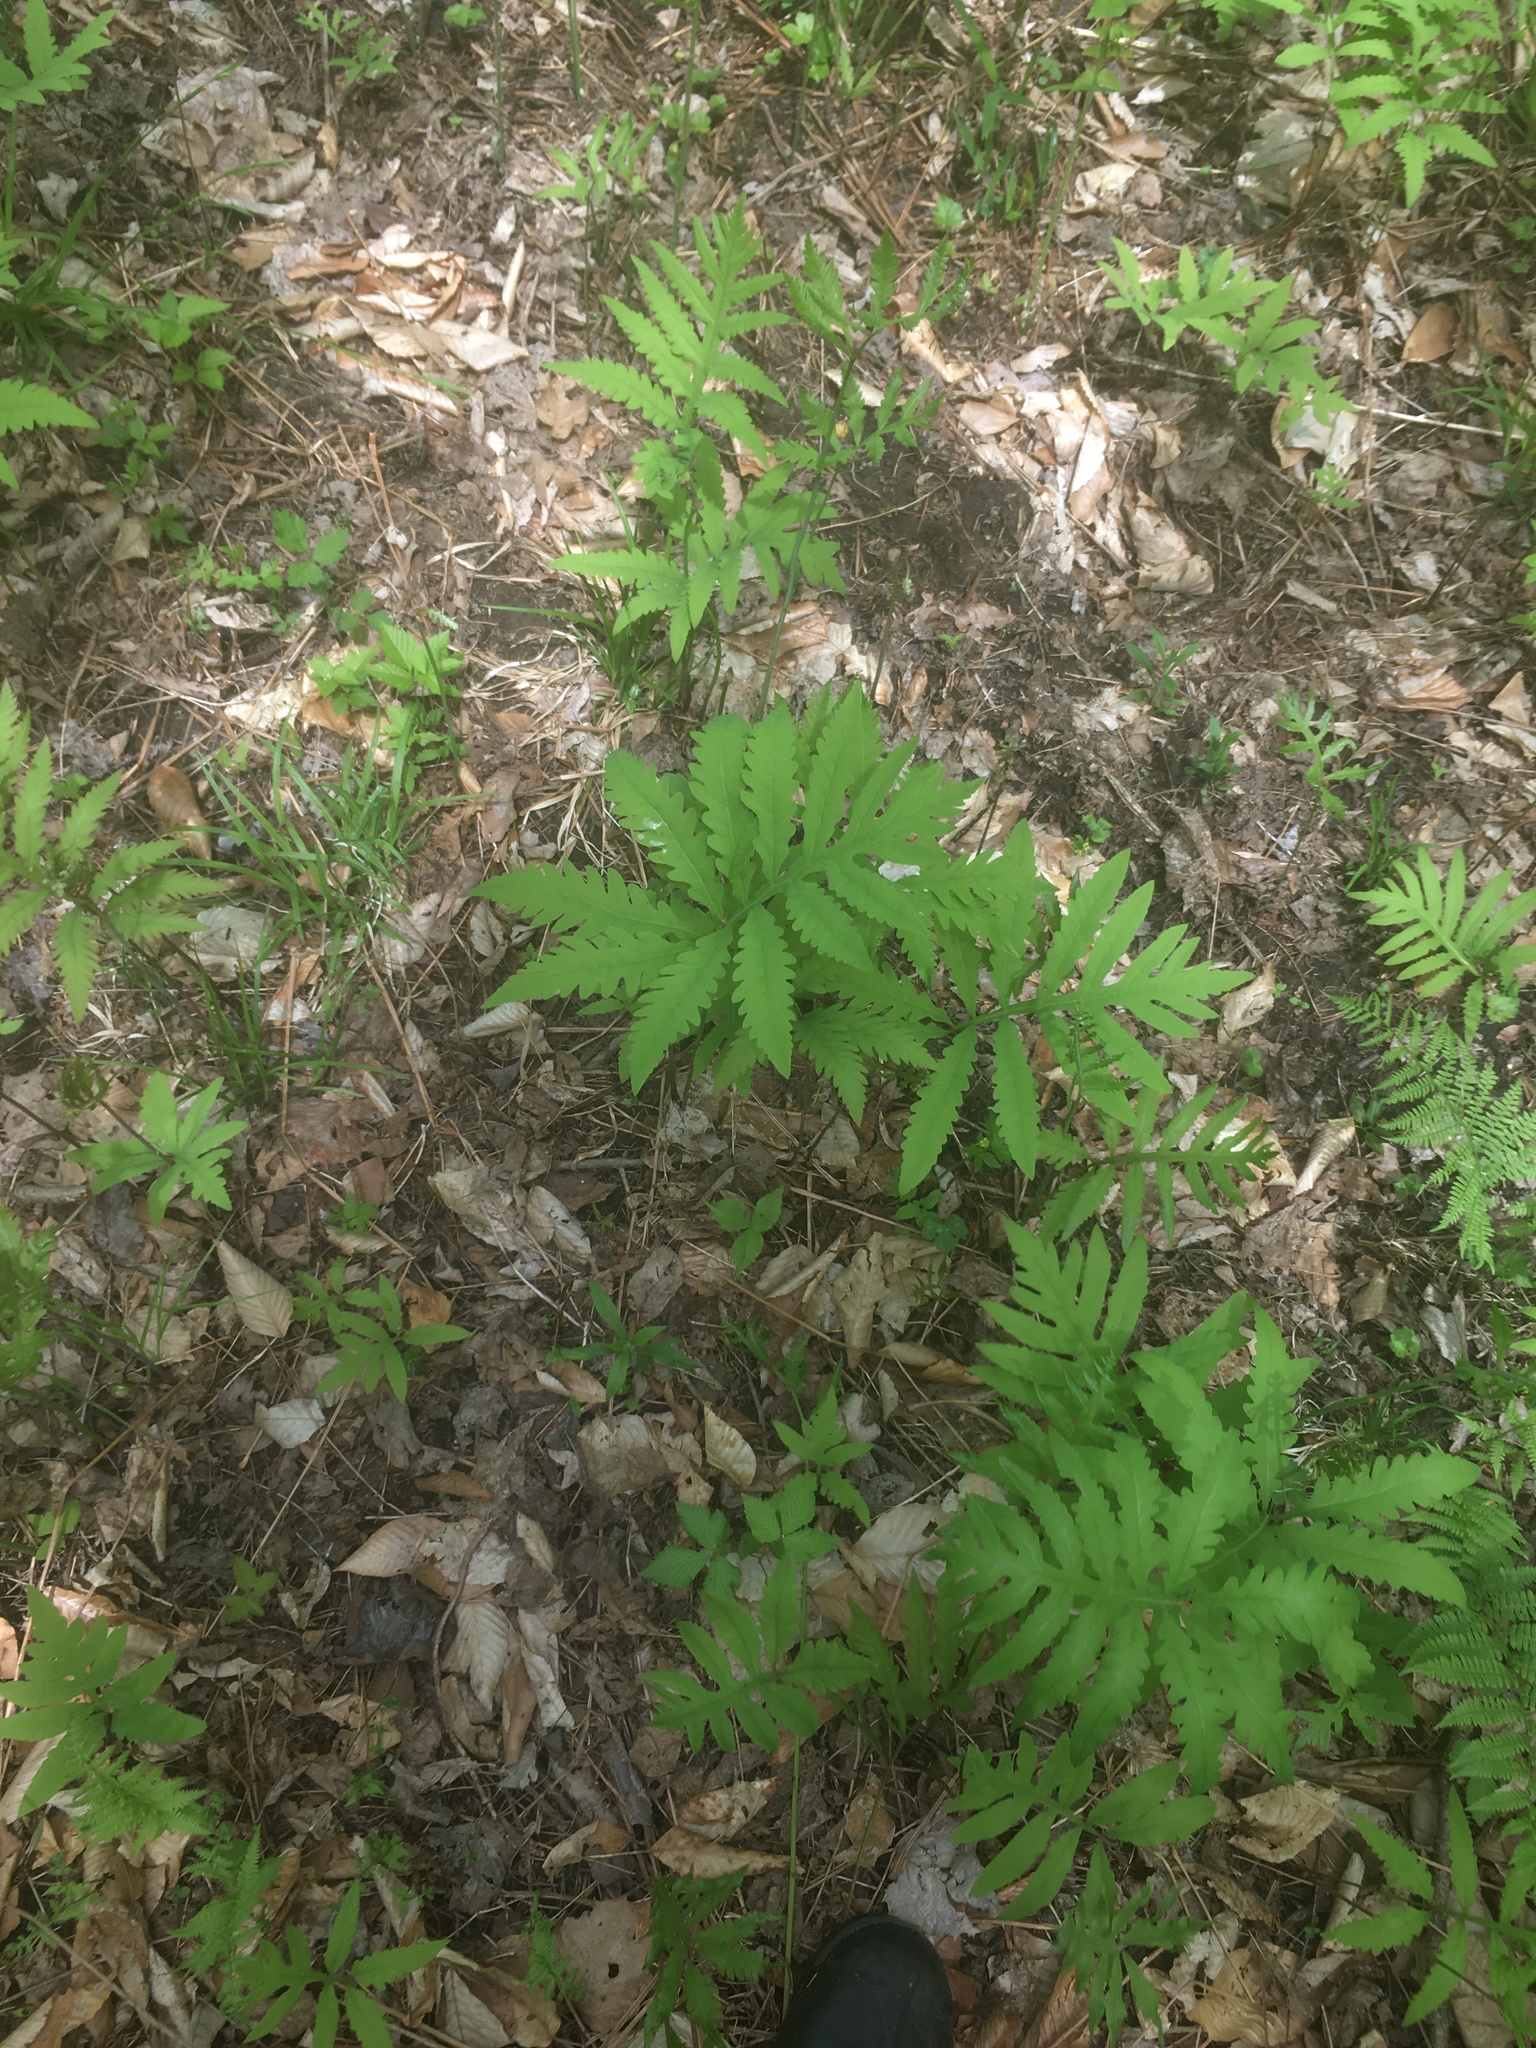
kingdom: Plantae
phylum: Tracheophyta
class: Polypodiopsida
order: Polypodiales
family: Onocleaceae
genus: Onoclea
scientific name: Onoclea sensibilis
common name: Sensitive fern
